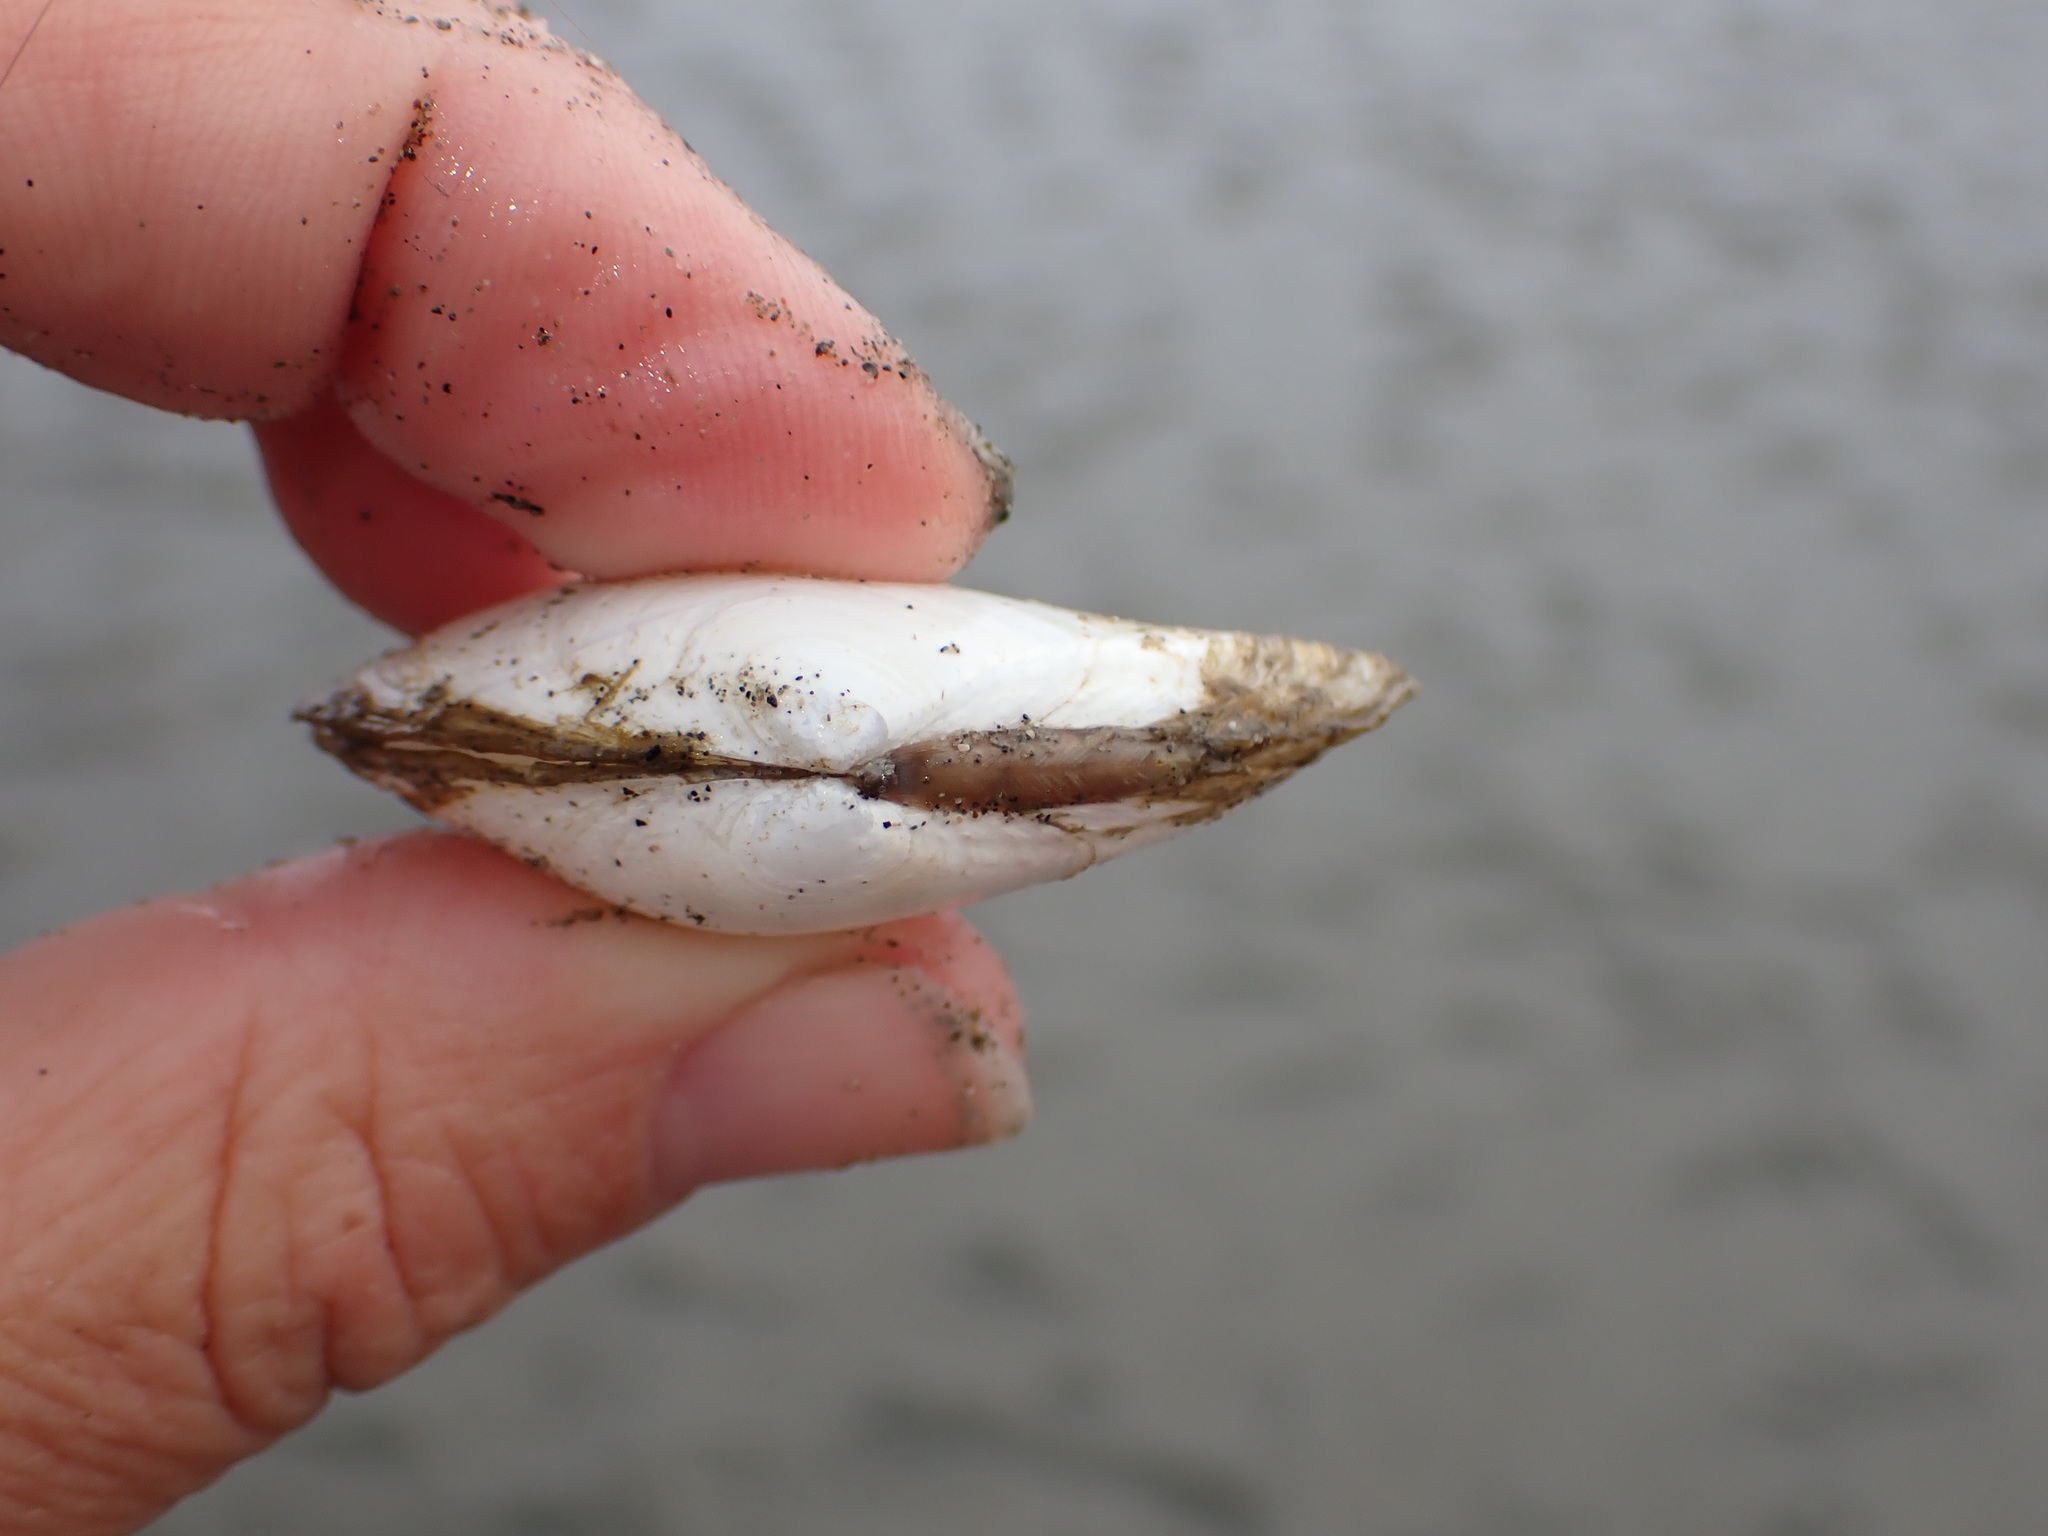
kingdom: Animalia
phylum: Mollusca
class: Bivalvia
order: Cardiida
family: Tellinidae
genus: Macoma
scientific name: Macoma nasuta
